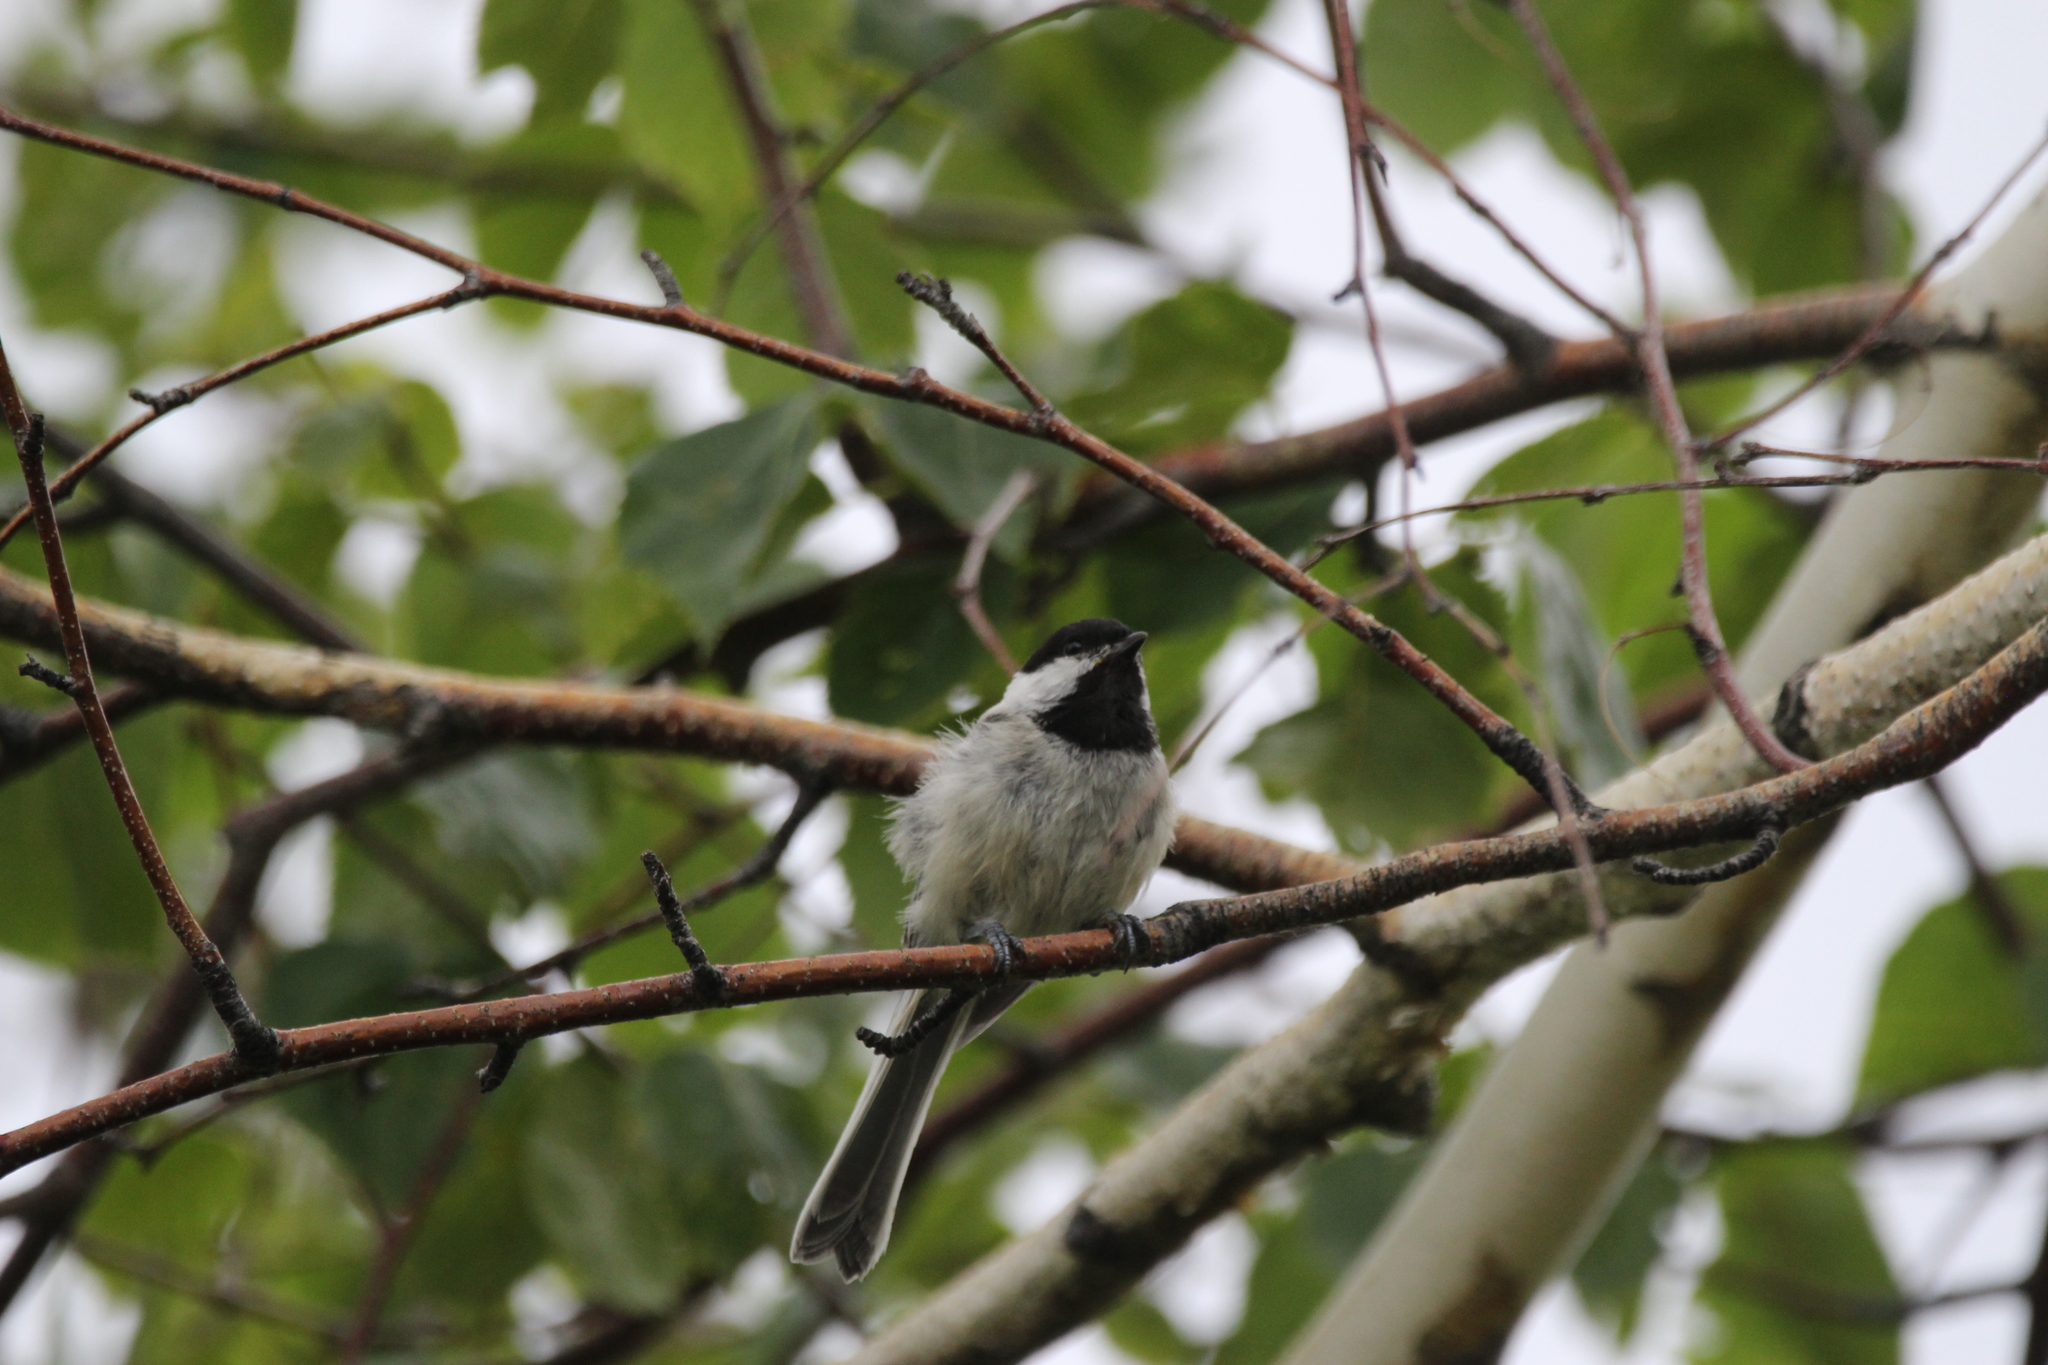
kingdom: Animalia
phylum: Chordata
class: Aves
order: Passeriformes
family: Paridae
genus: Poecile
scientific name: Poecile atricapillus
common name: Black-capped chickadee
